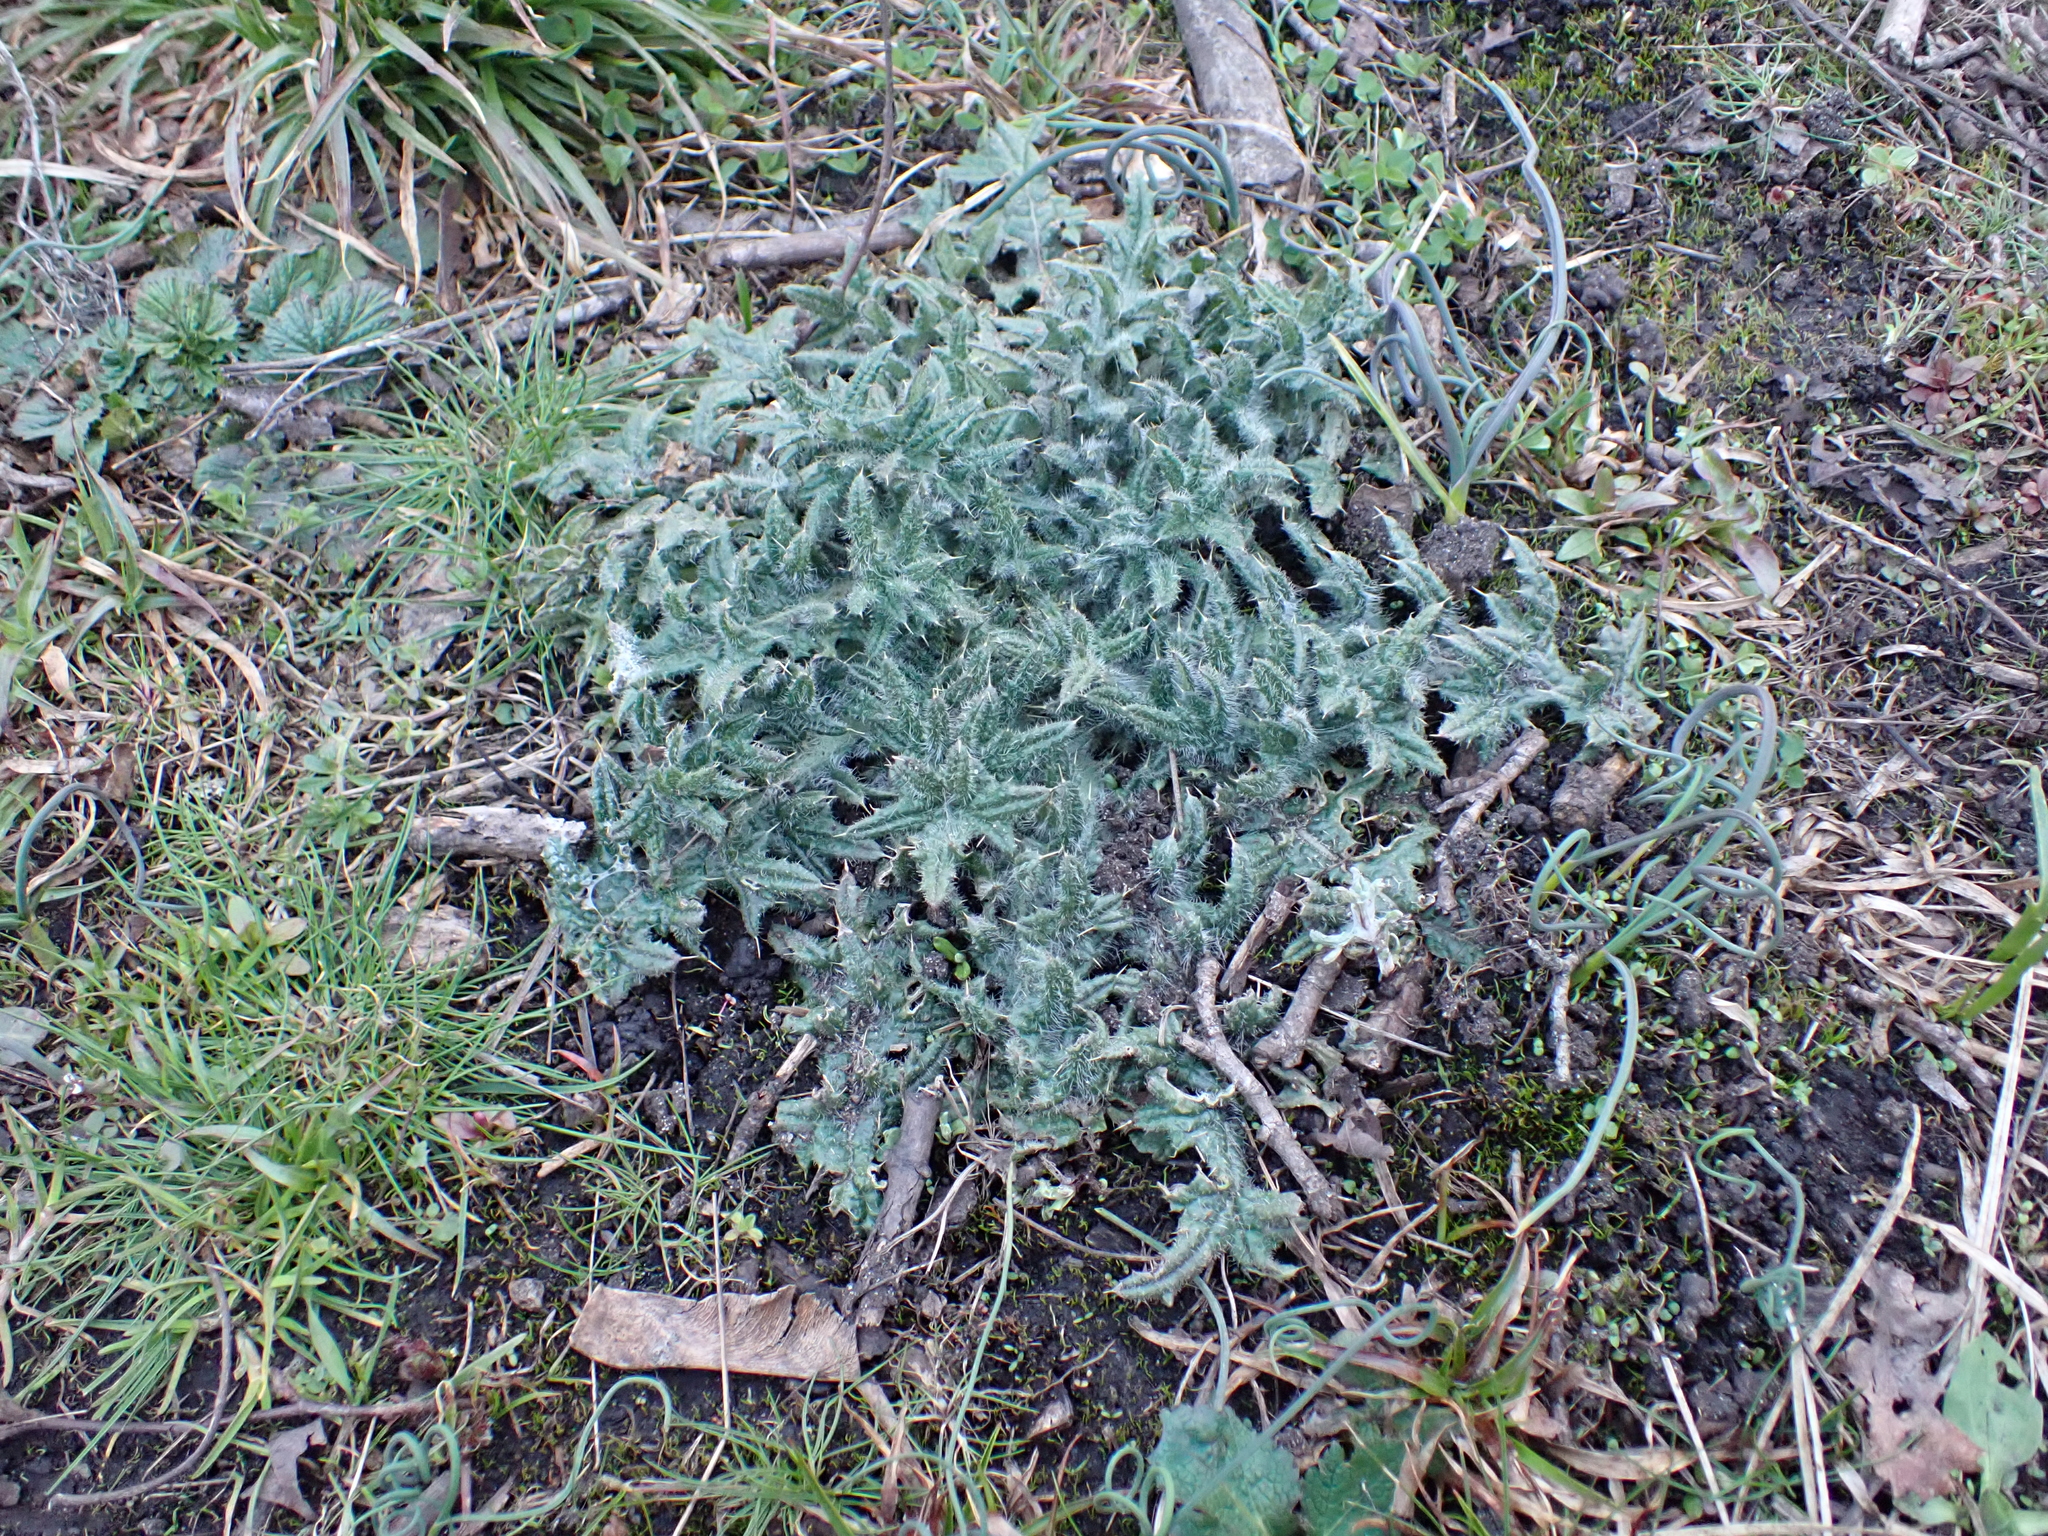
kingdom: Plantae
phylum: Tracheophyta
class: Magnoliopsida
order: Asterales
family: Asteraceae
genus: Cirsium
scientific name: Cirsium vulgare
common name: Bull thistle
